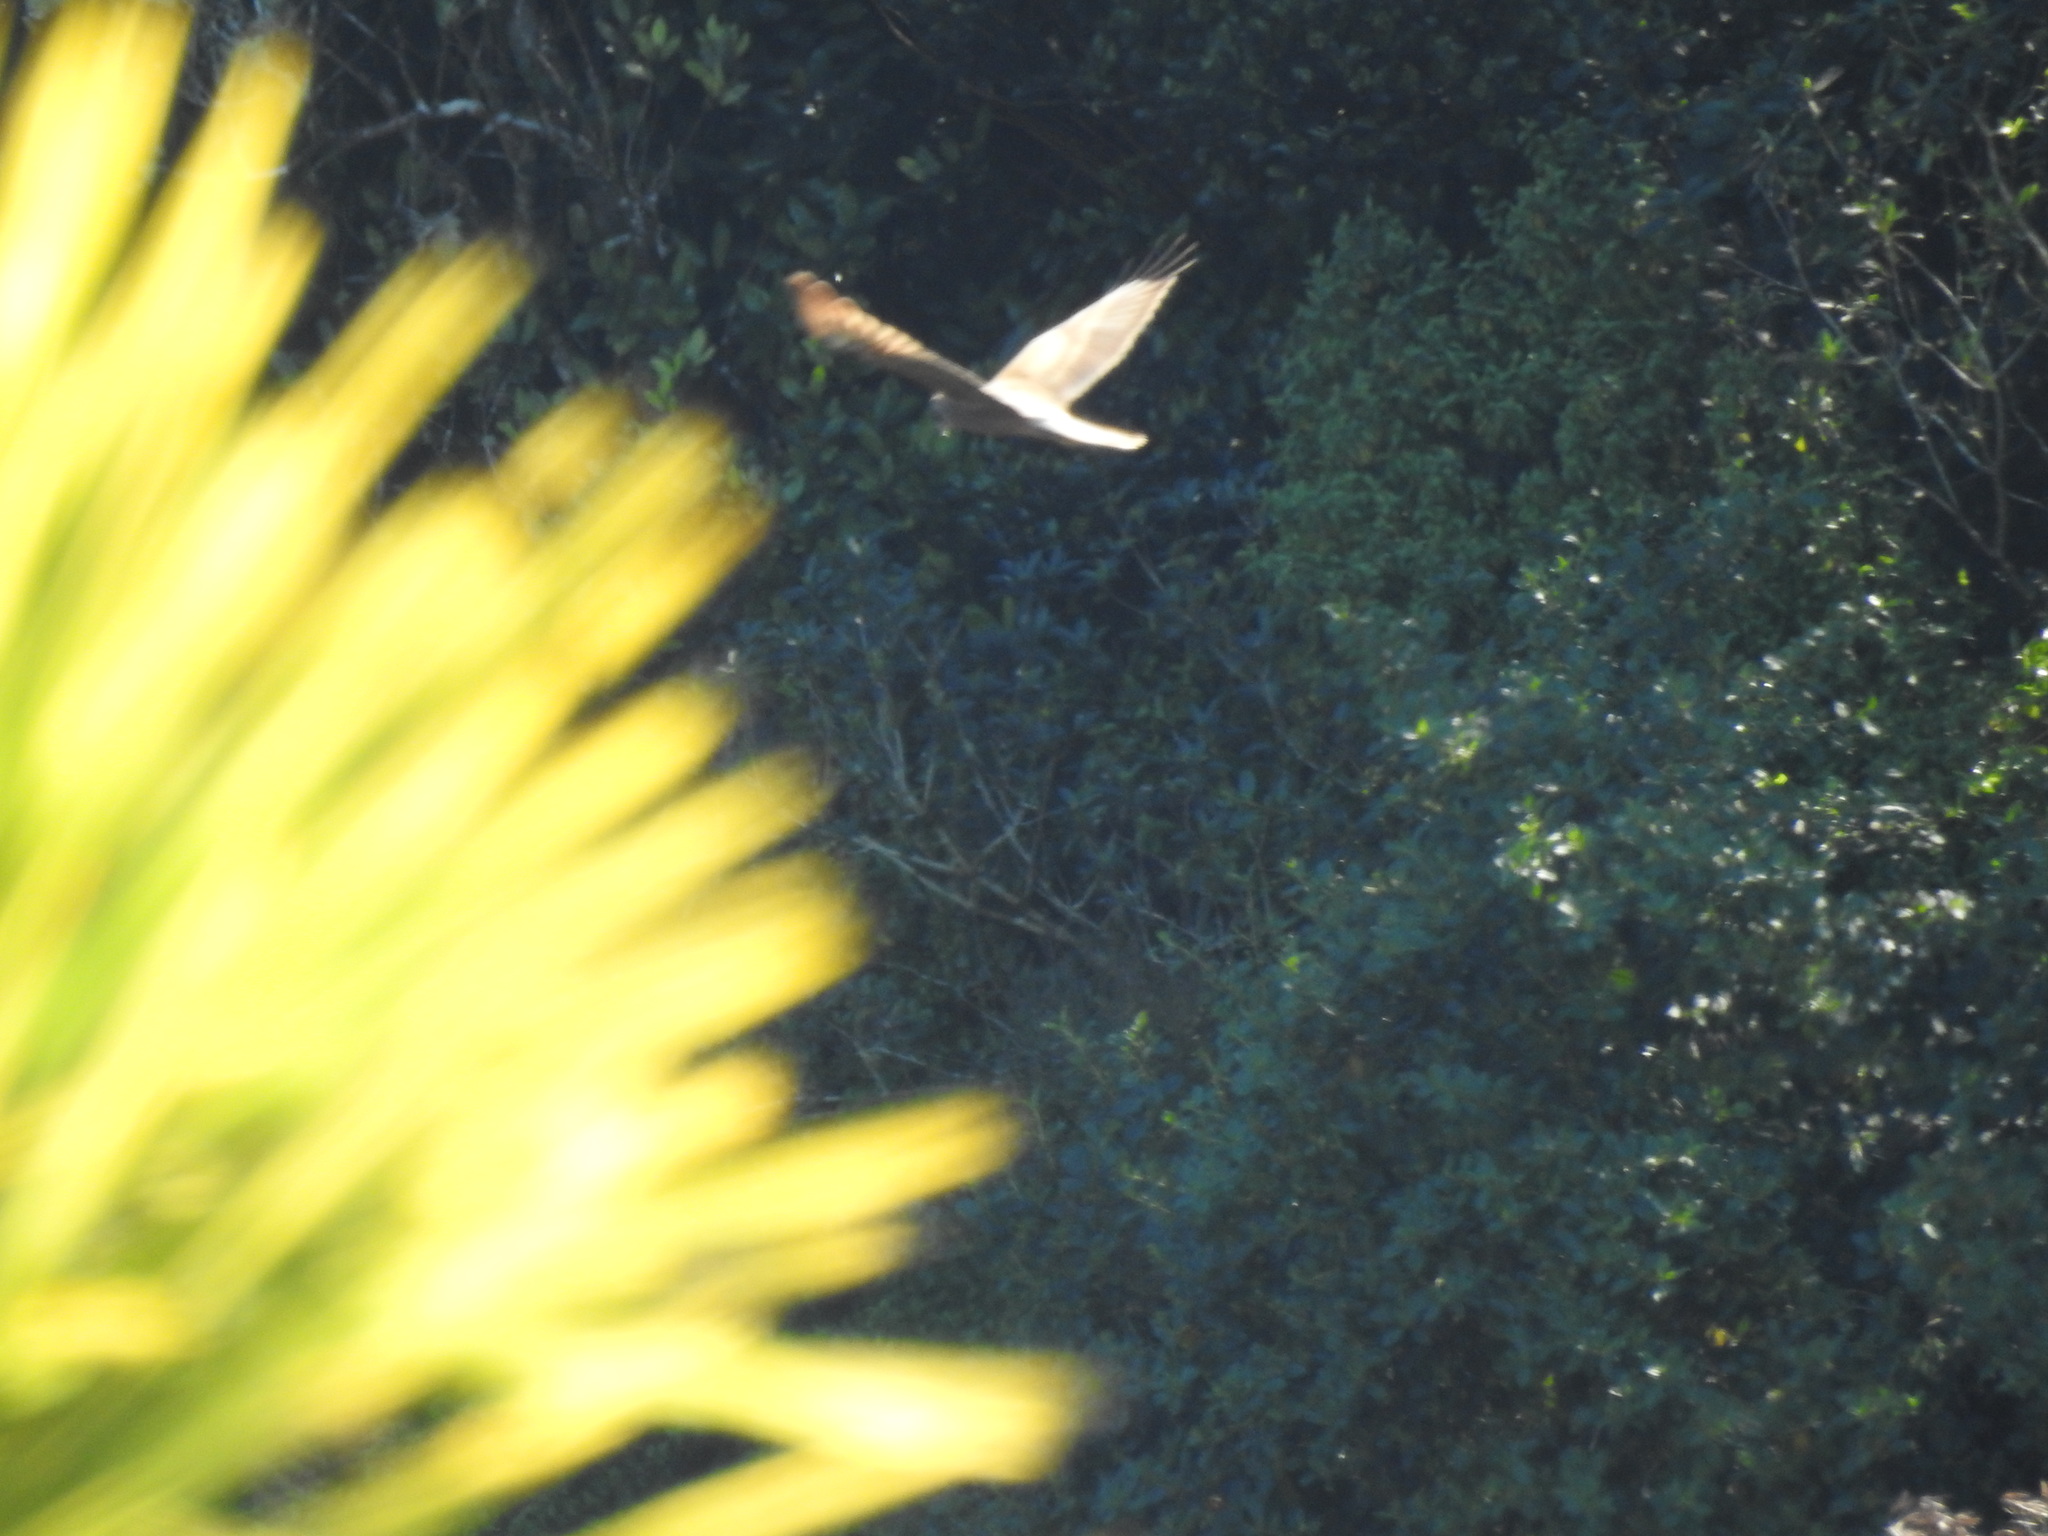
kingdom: Animalia
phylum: Chordata
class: Aves
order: Accipitriformes
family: Accipitridae
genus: Circus
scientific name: Circus approximans
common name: Swamp harrier
